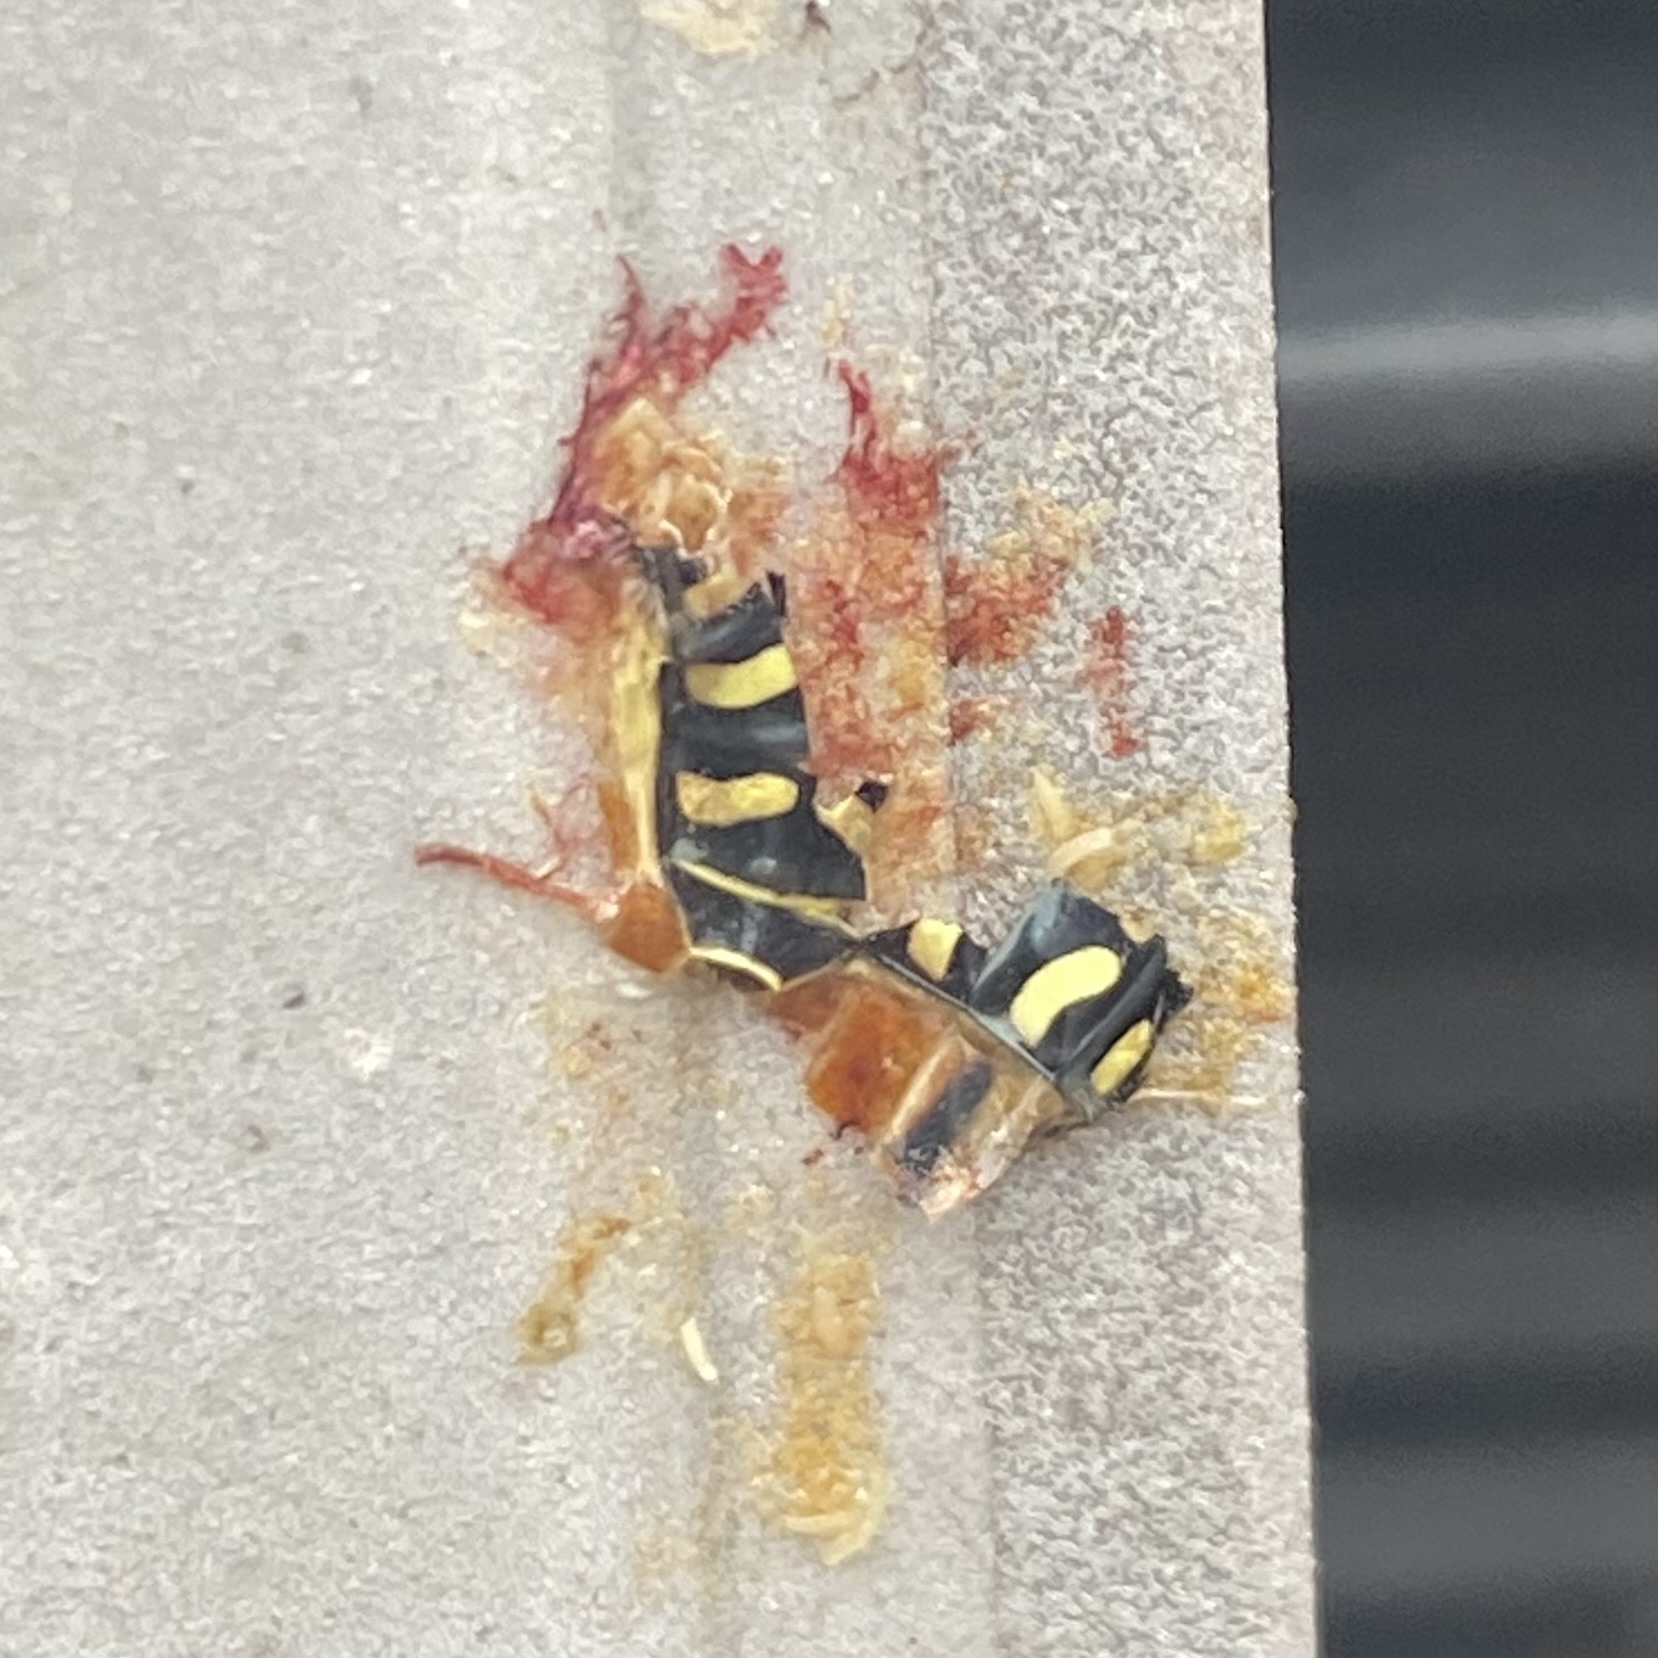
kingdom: Animalia
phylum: Arthropoda
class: Insecta
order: Diptera
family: Syrphidae
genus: Eupeodes
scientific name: Eupeodes volucris
